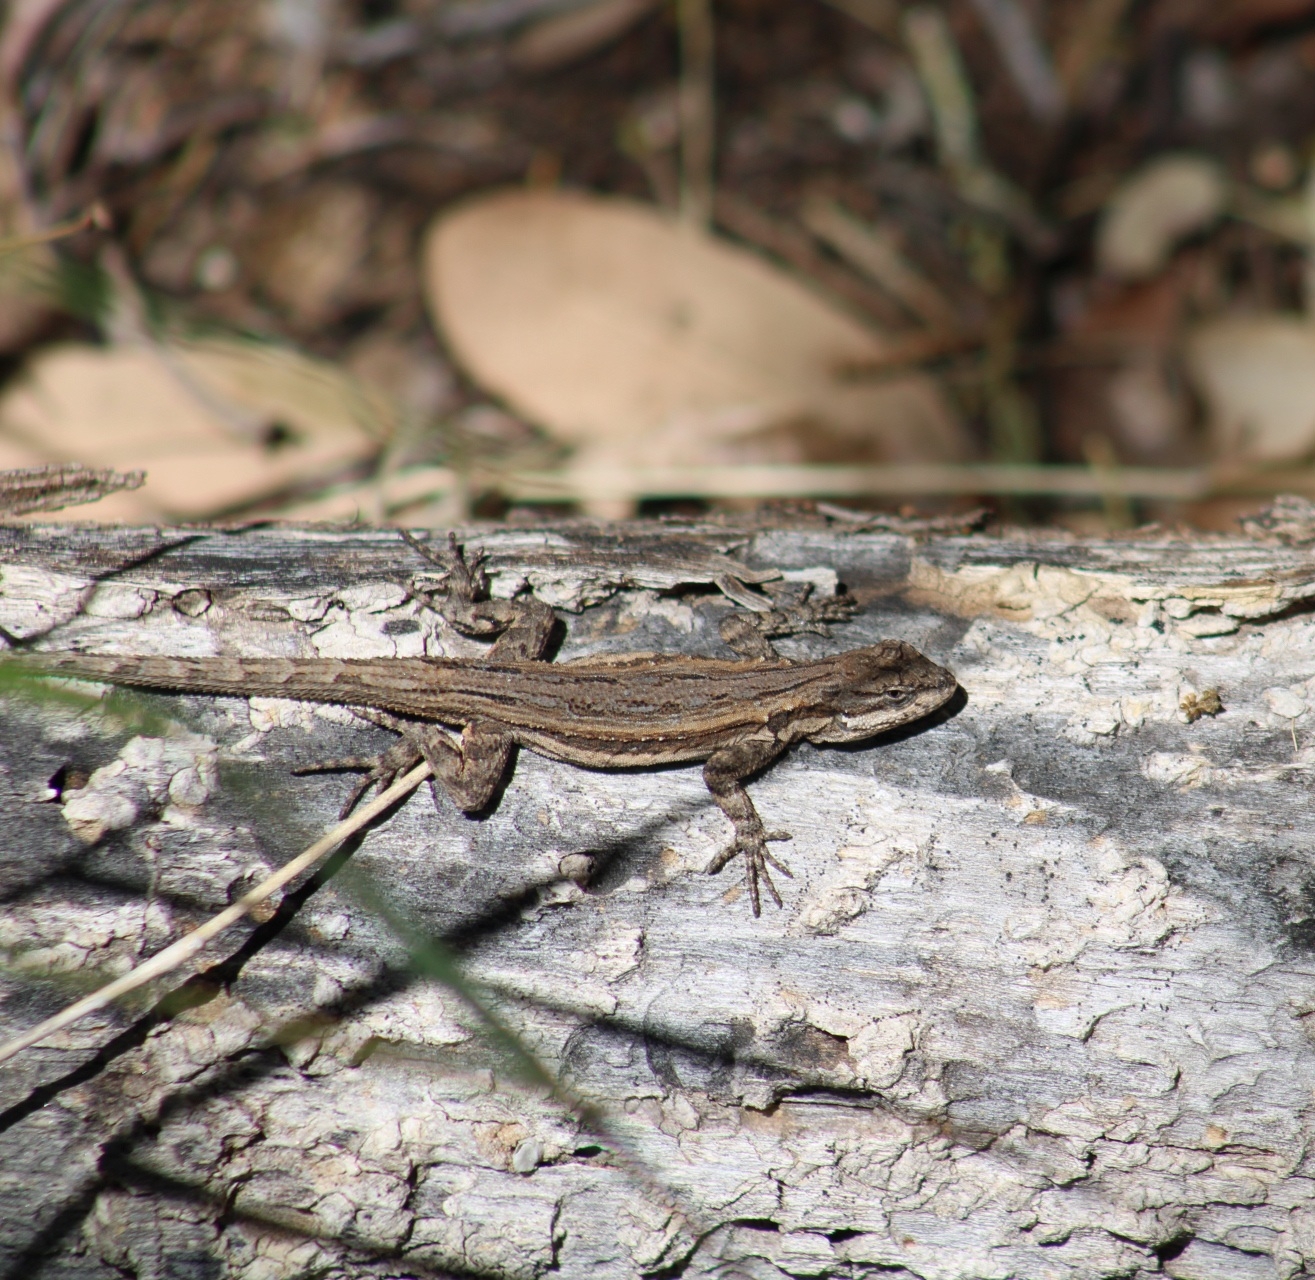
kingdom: Animalia
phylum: Chordata
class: Squamata
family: Phrynosomatidae
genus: Urosaurus
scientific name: Urosaurus ornatus
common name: Ornate tree lizard
